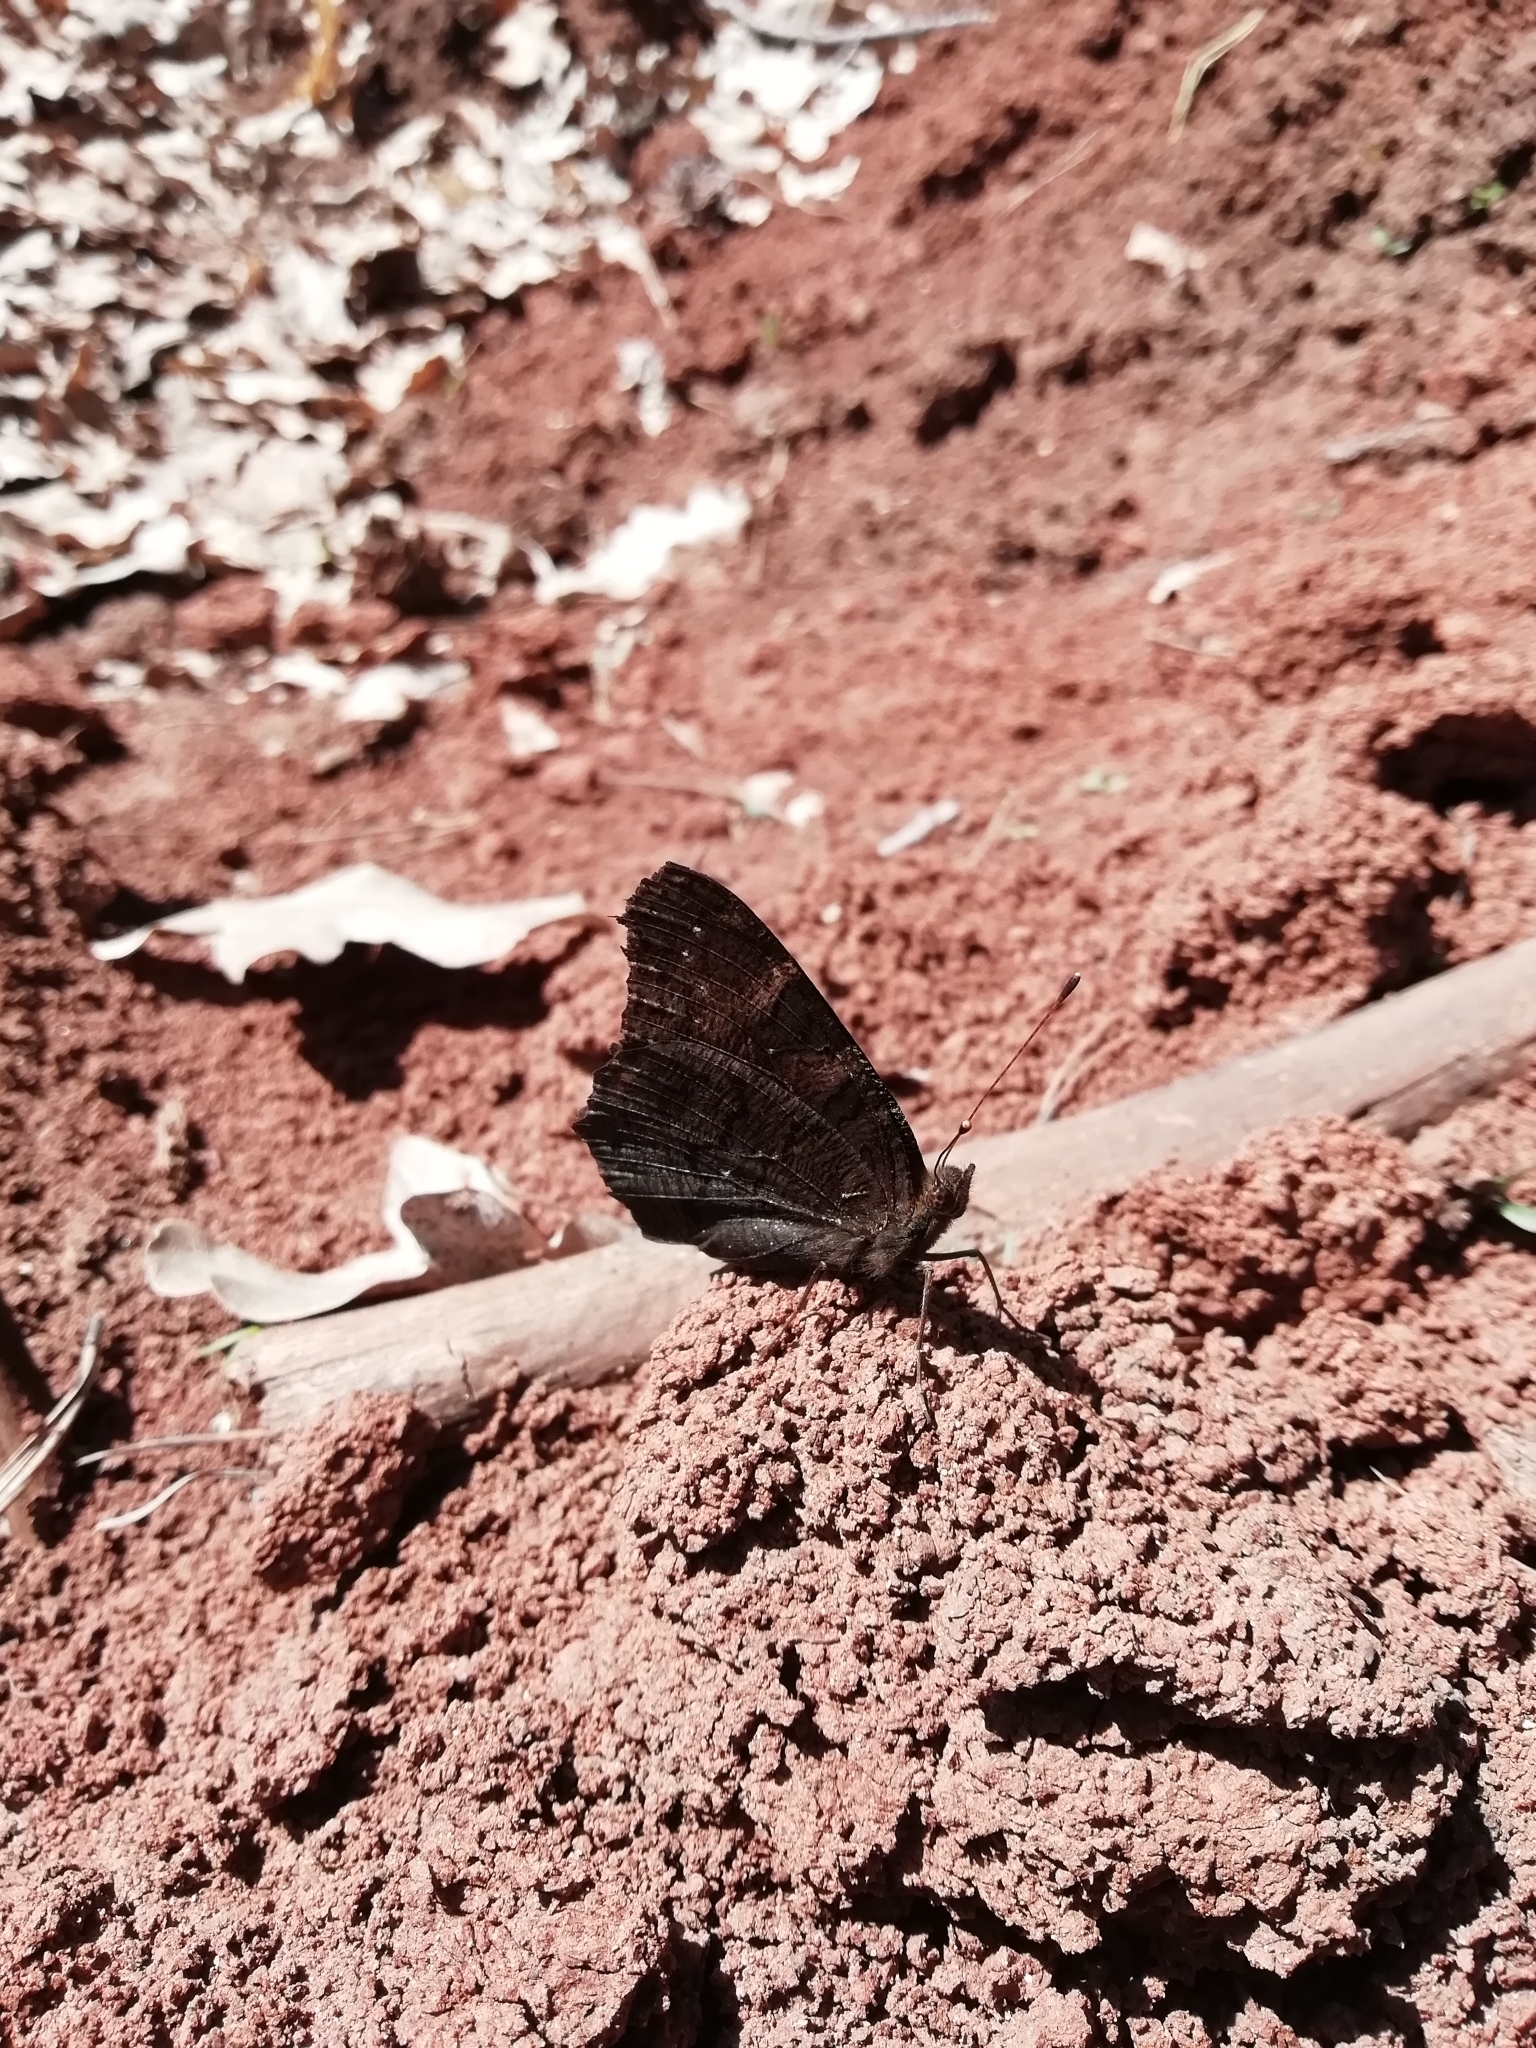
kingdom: Animalia
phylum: Arthropoda
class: Insecta
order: Lepidoptera
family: Nymphalidae
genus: Aglais
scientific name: Aglais io
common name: Peacock
